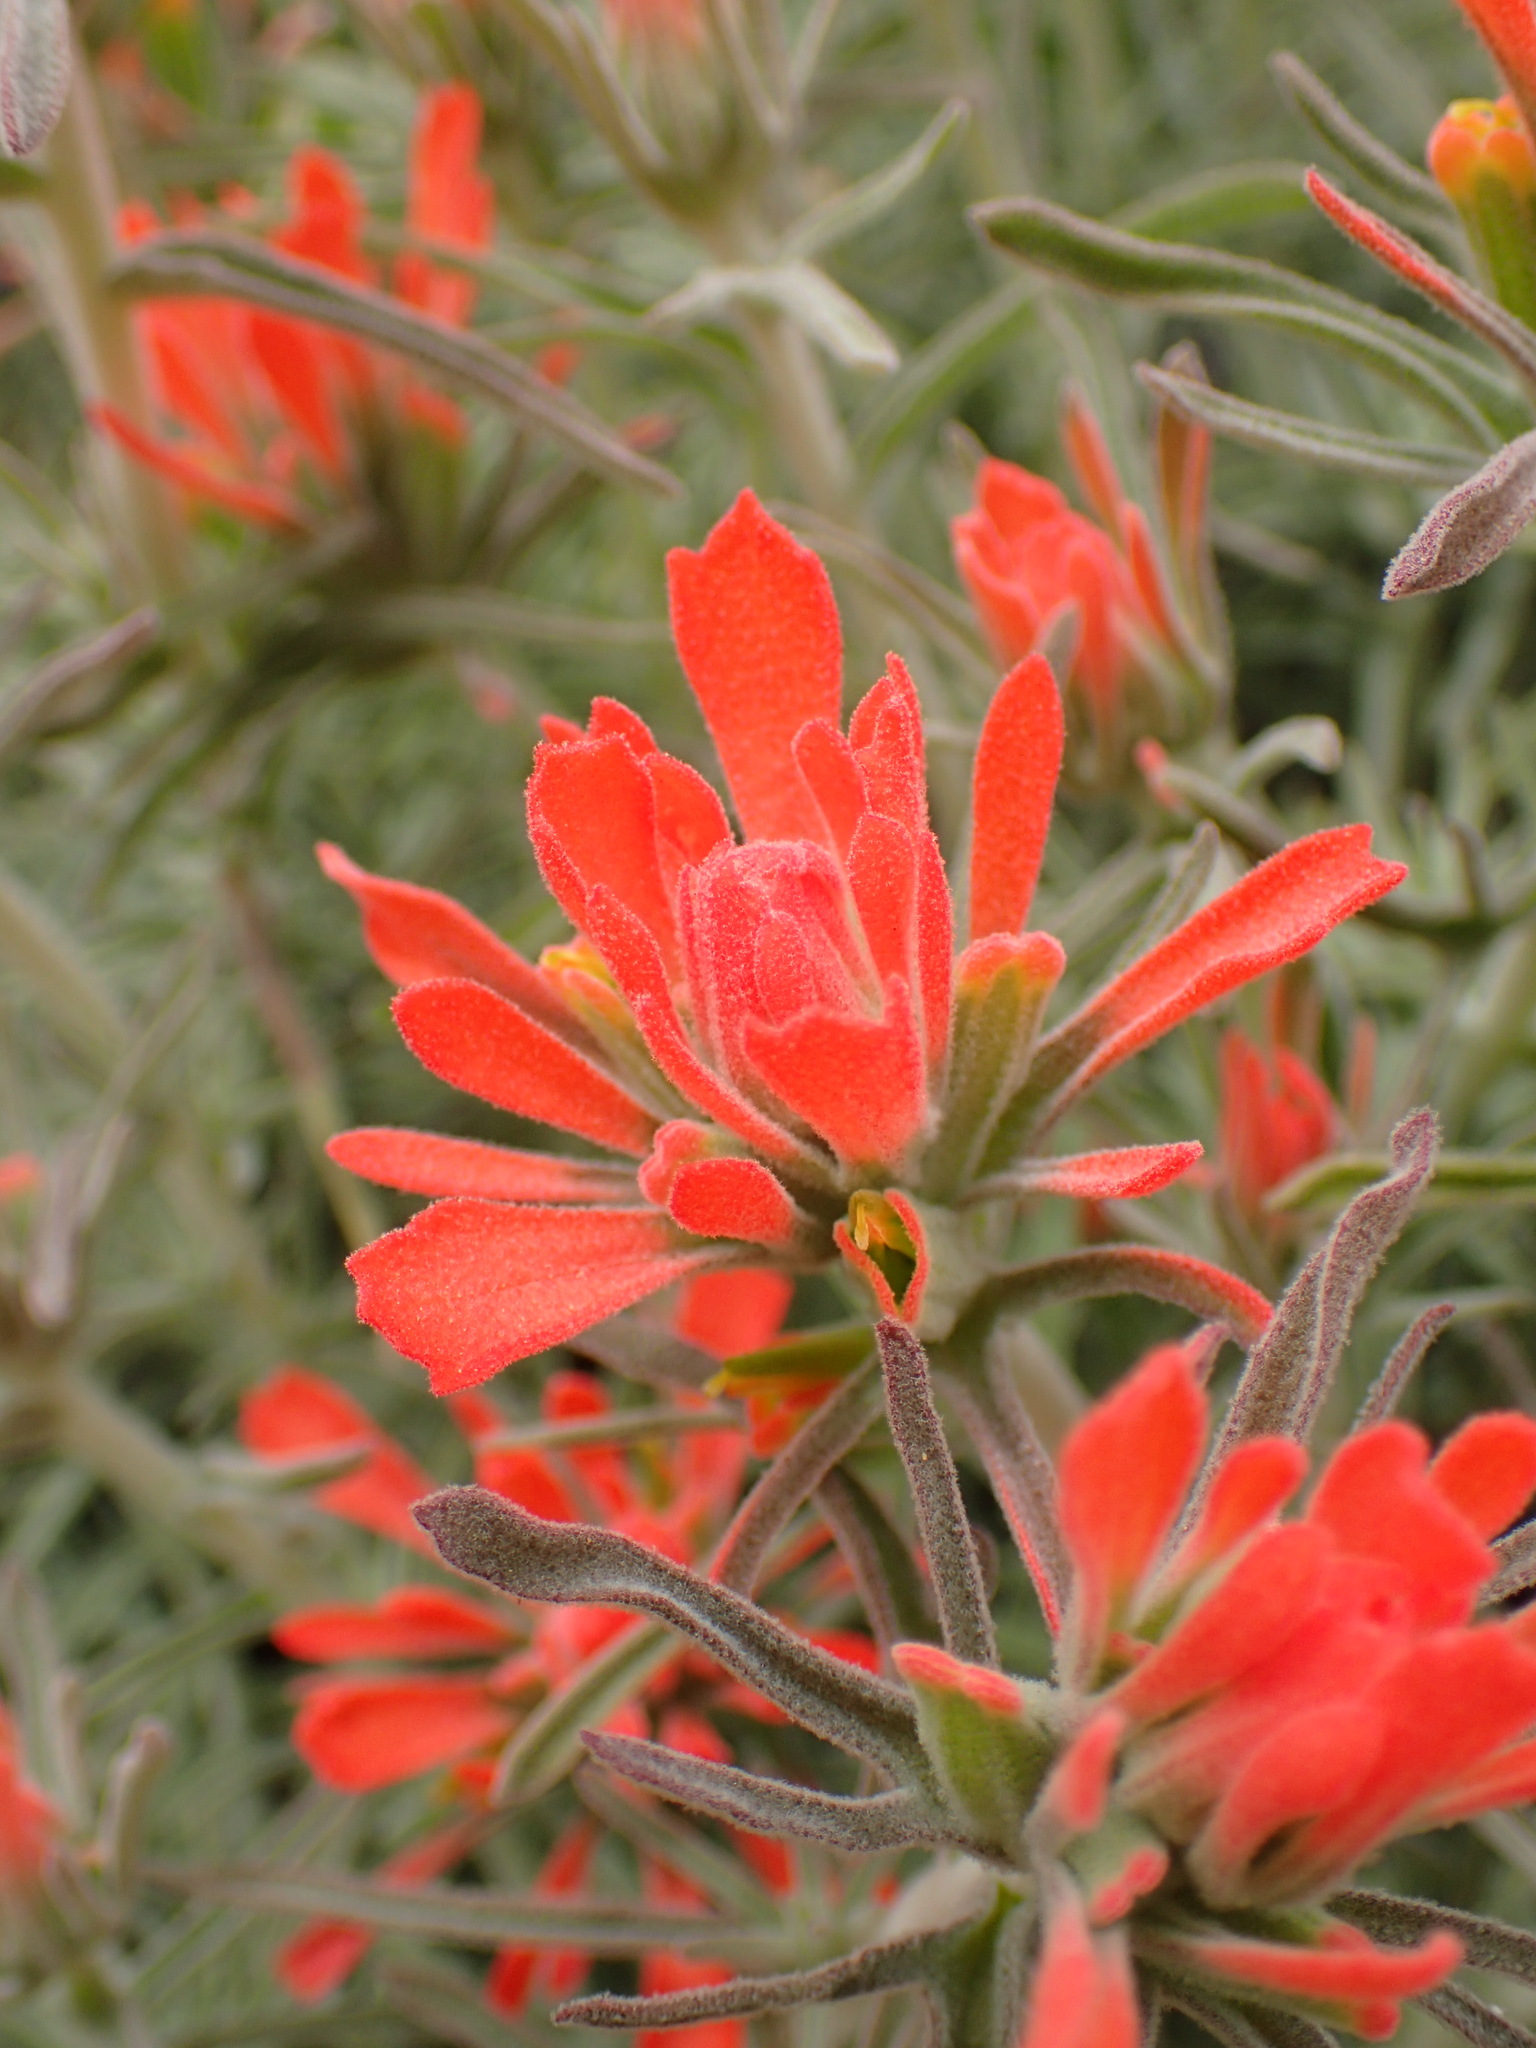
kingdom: Plantae
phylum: Tracheophyta
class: Magnoliopsida
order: Lamiales
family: Orobanchaceae
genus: Castilleja
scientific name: Castilleja foliolosa
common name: Woolly indian paintbrush
